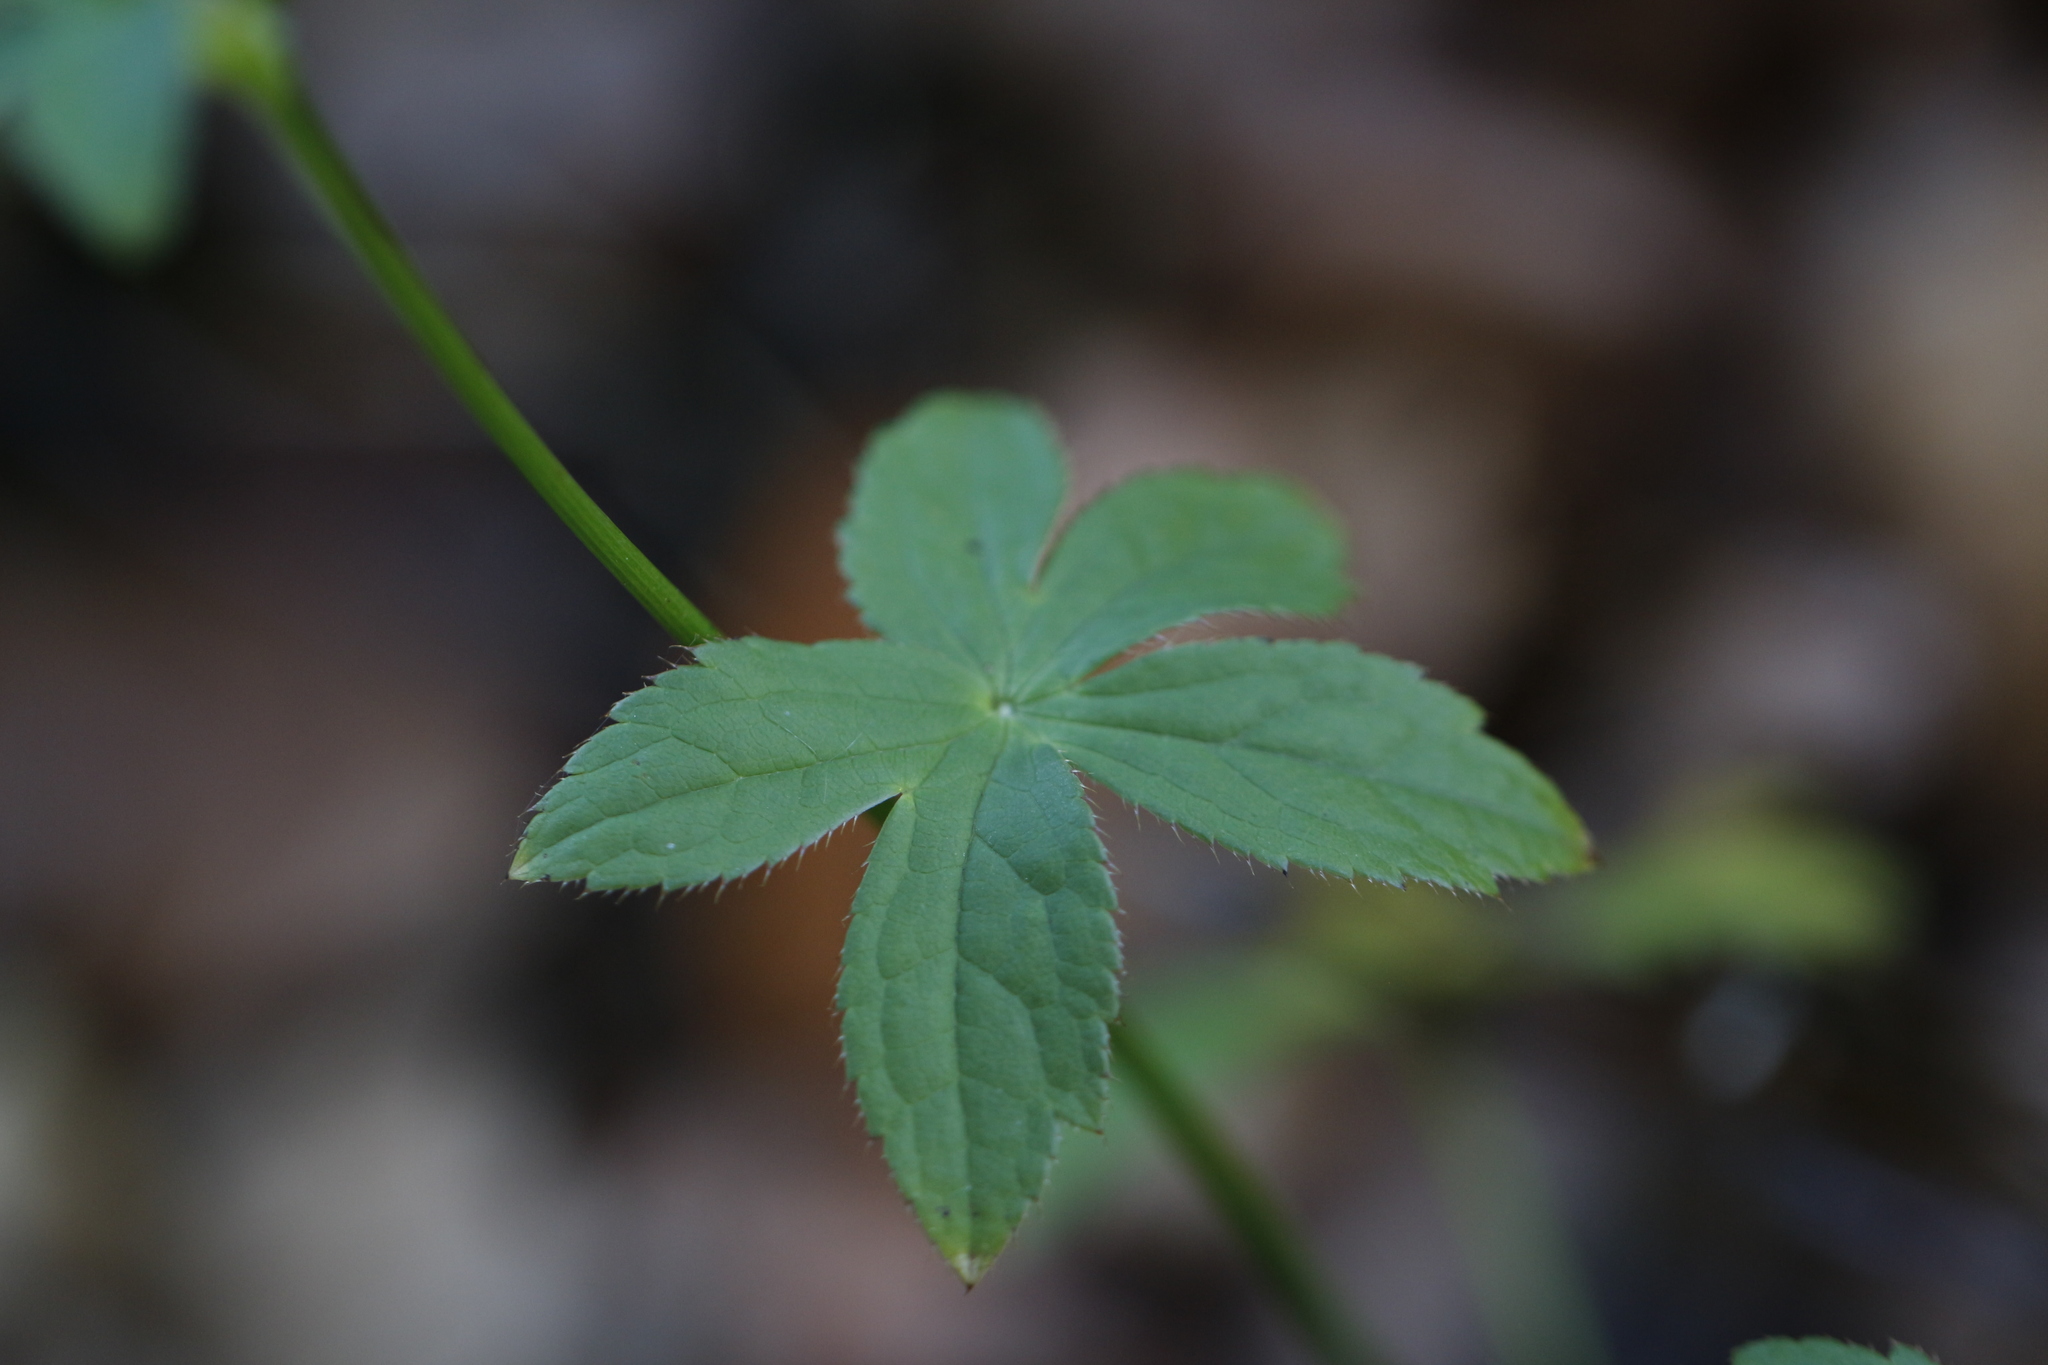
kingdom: Plantae
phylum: Tracheophyta
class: Magnoliopsida
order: Apiales
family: Apiaceae
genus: Astrantia
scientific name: Astrantia major
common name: Greater masterwort
